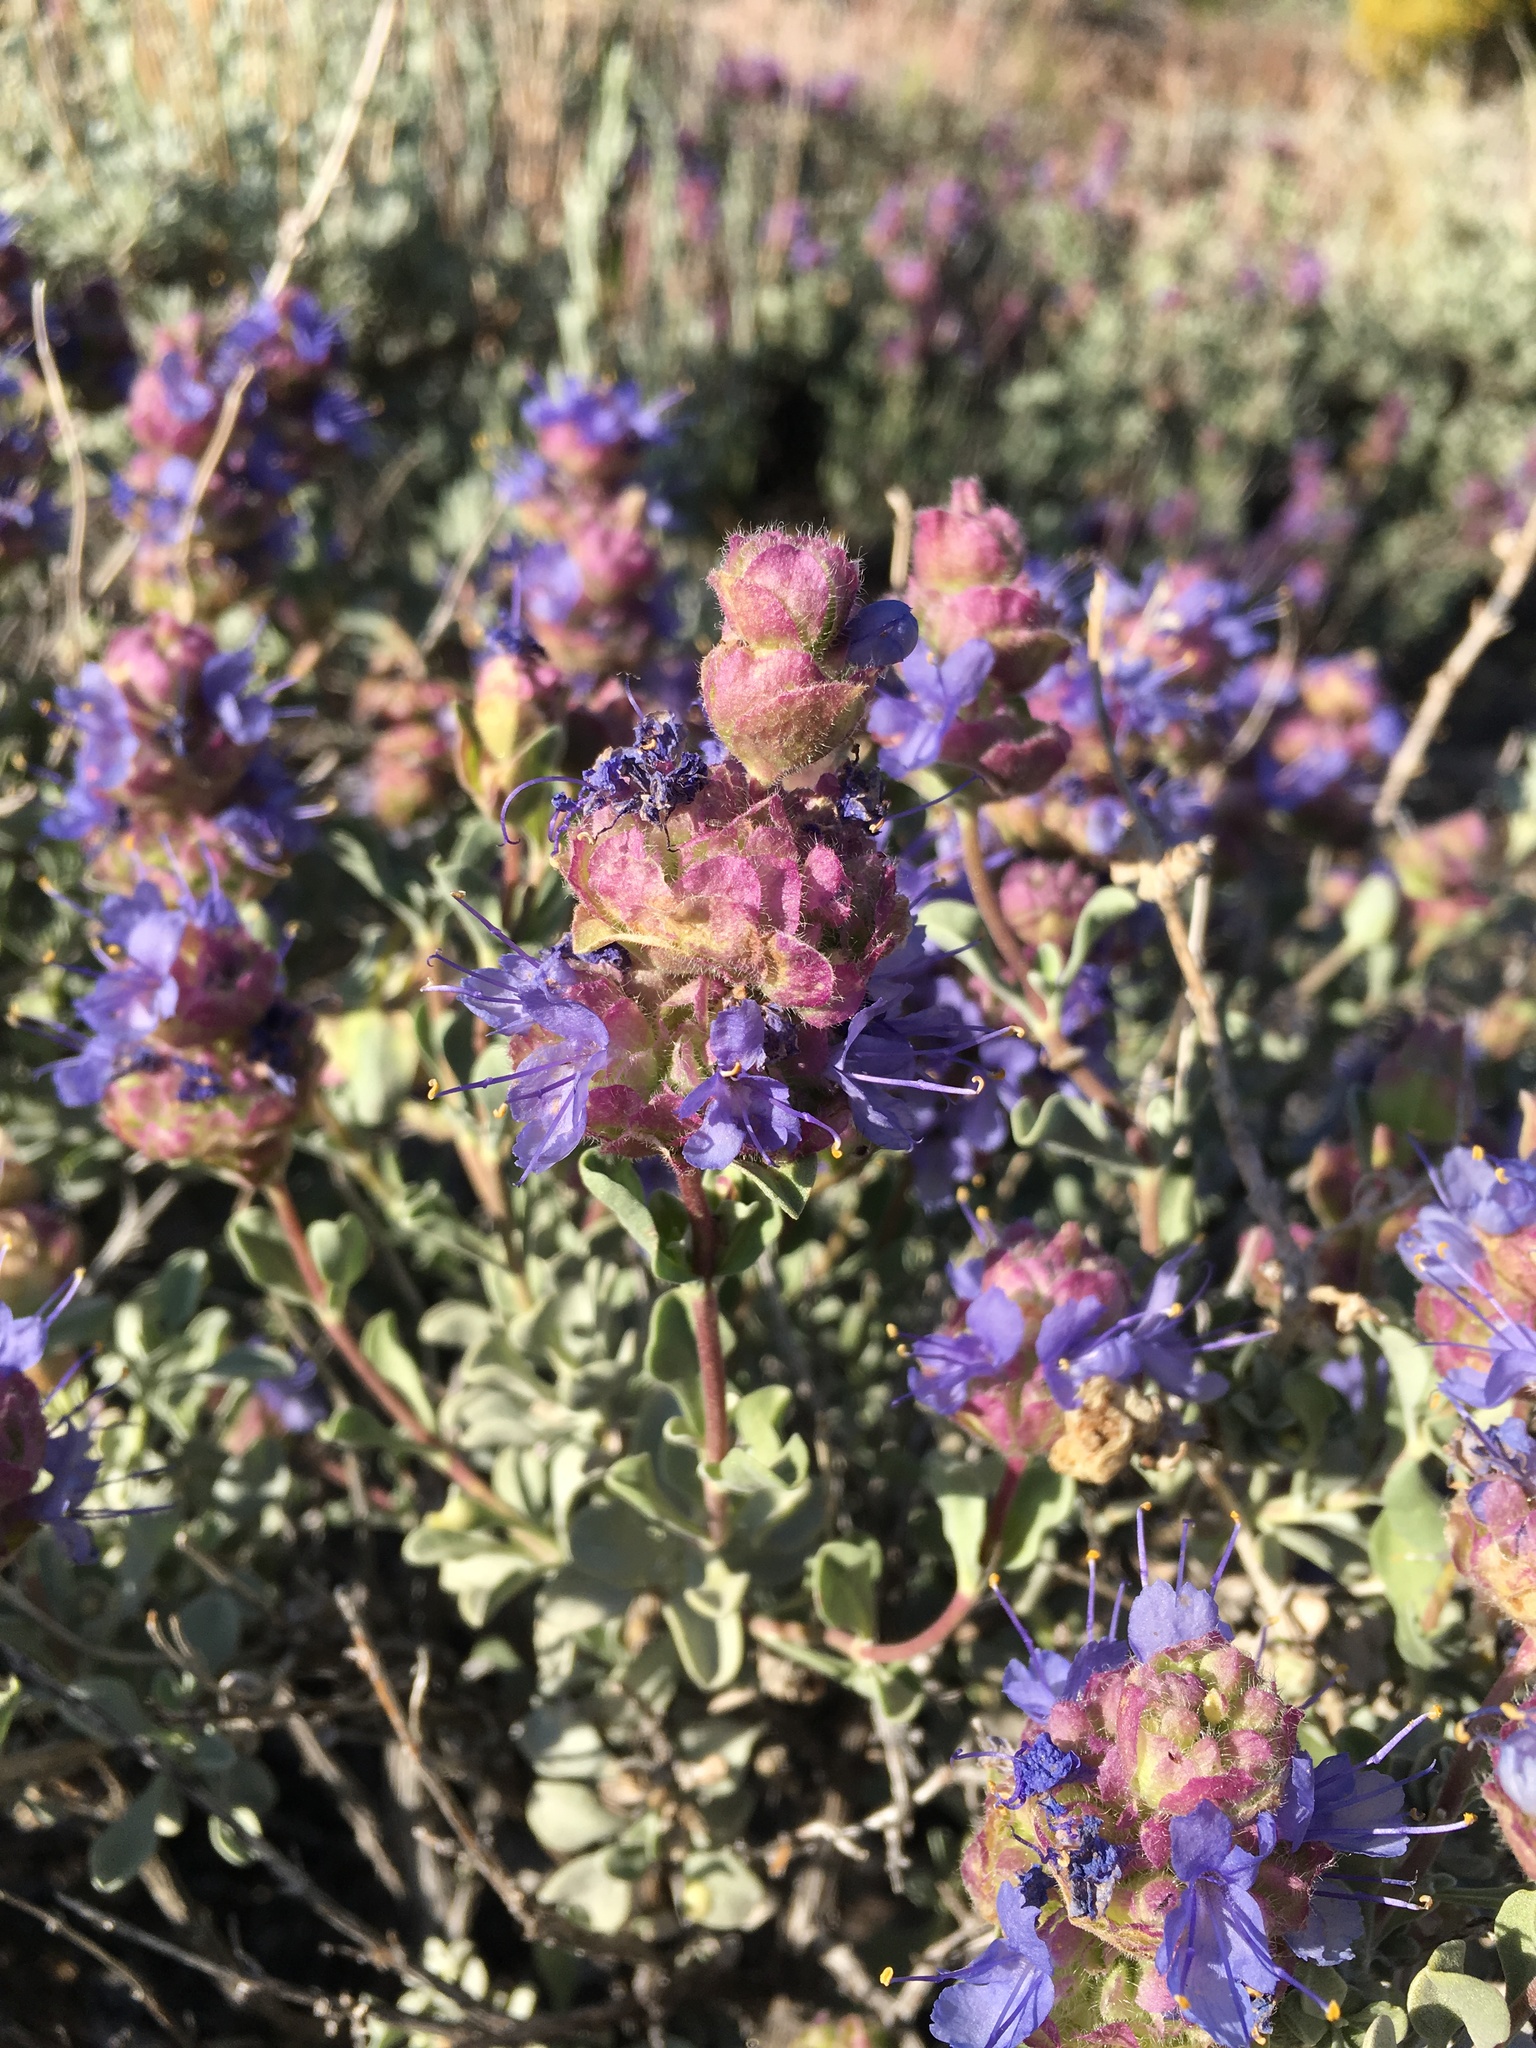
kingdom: Plantae
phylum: Tracheophyta
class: Magnoliopsida
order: Lamiales
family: Lamiaceae
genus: Salvia
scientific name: Salvia dorrii
